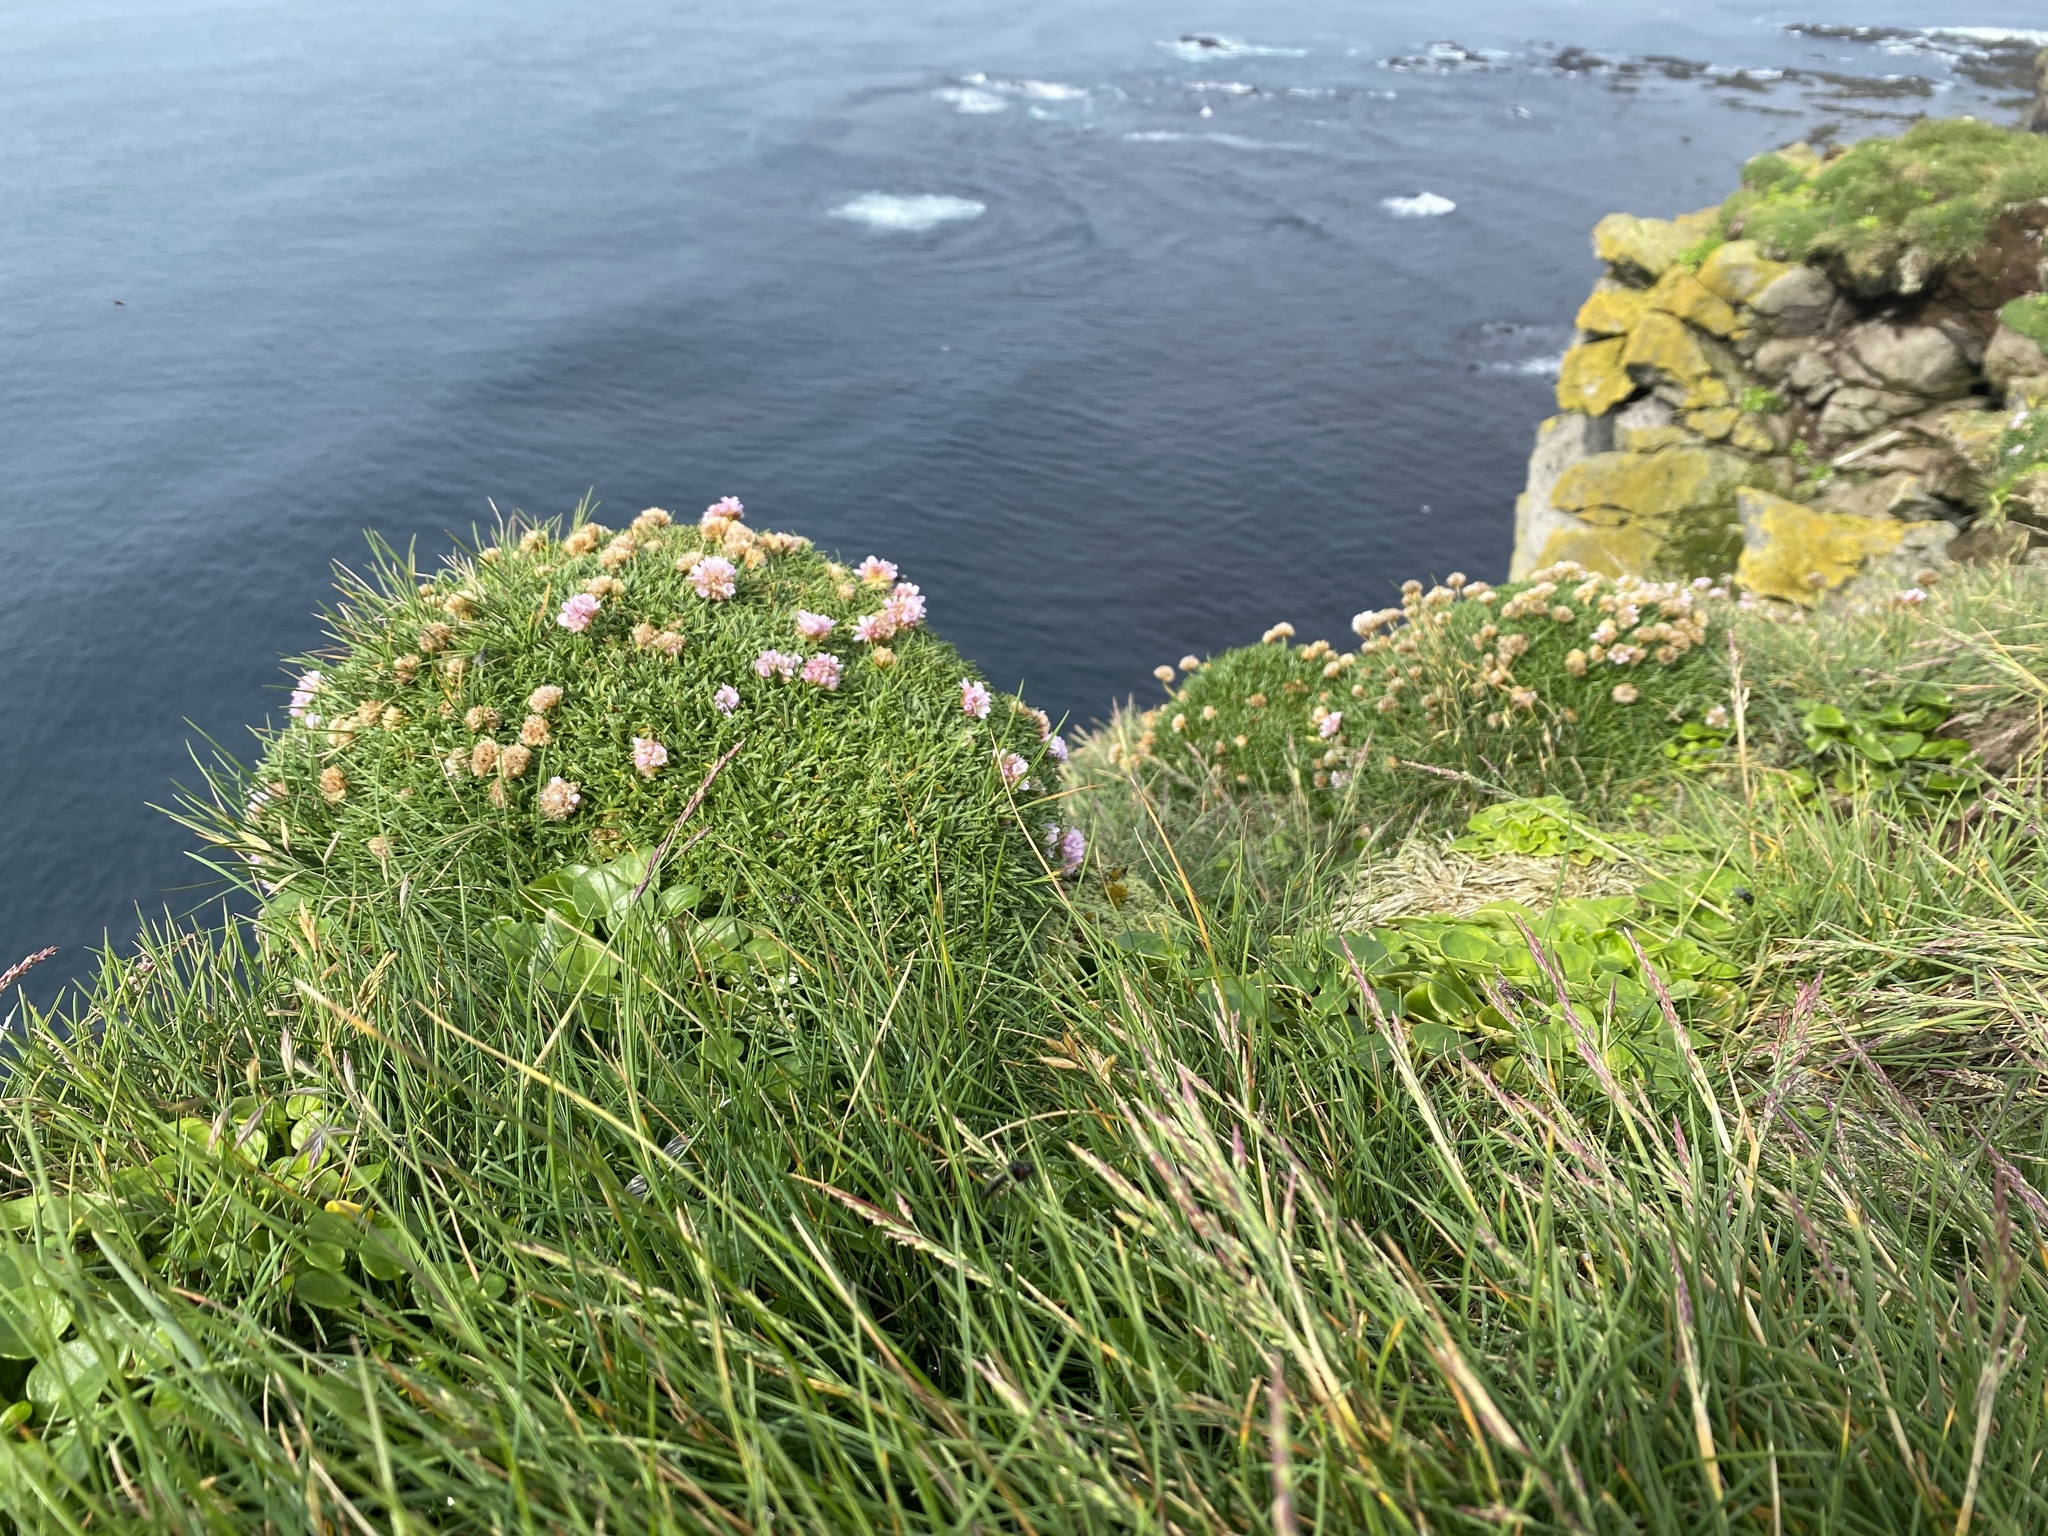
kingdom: Plantae
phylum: Tracheophyta
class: Magnoliopsida
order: Caryophyllales
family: Plumbaginaceae
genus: Armeria
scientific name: Armeria maritima
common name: Thrift
